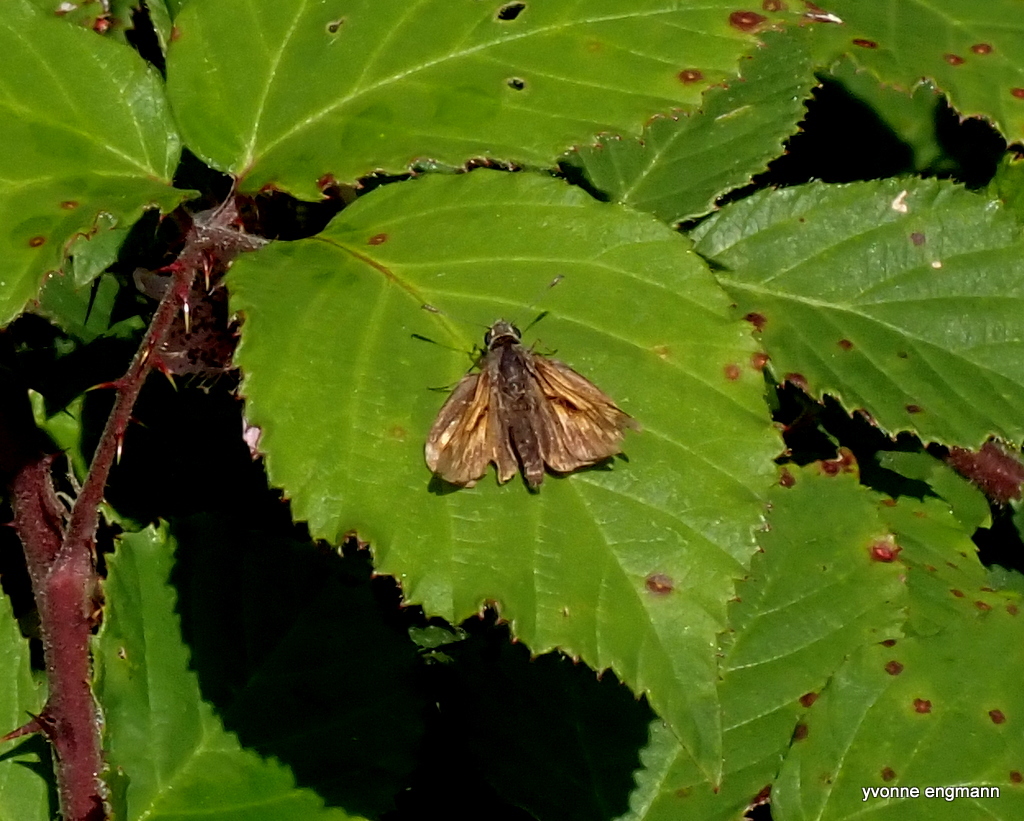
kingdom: Animalia
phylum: Arthropoda
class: Insecta
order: Lepidoptera
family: Hesperiidae
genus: Ochlodes
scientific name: Ochlodes venata
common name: Large skipper
